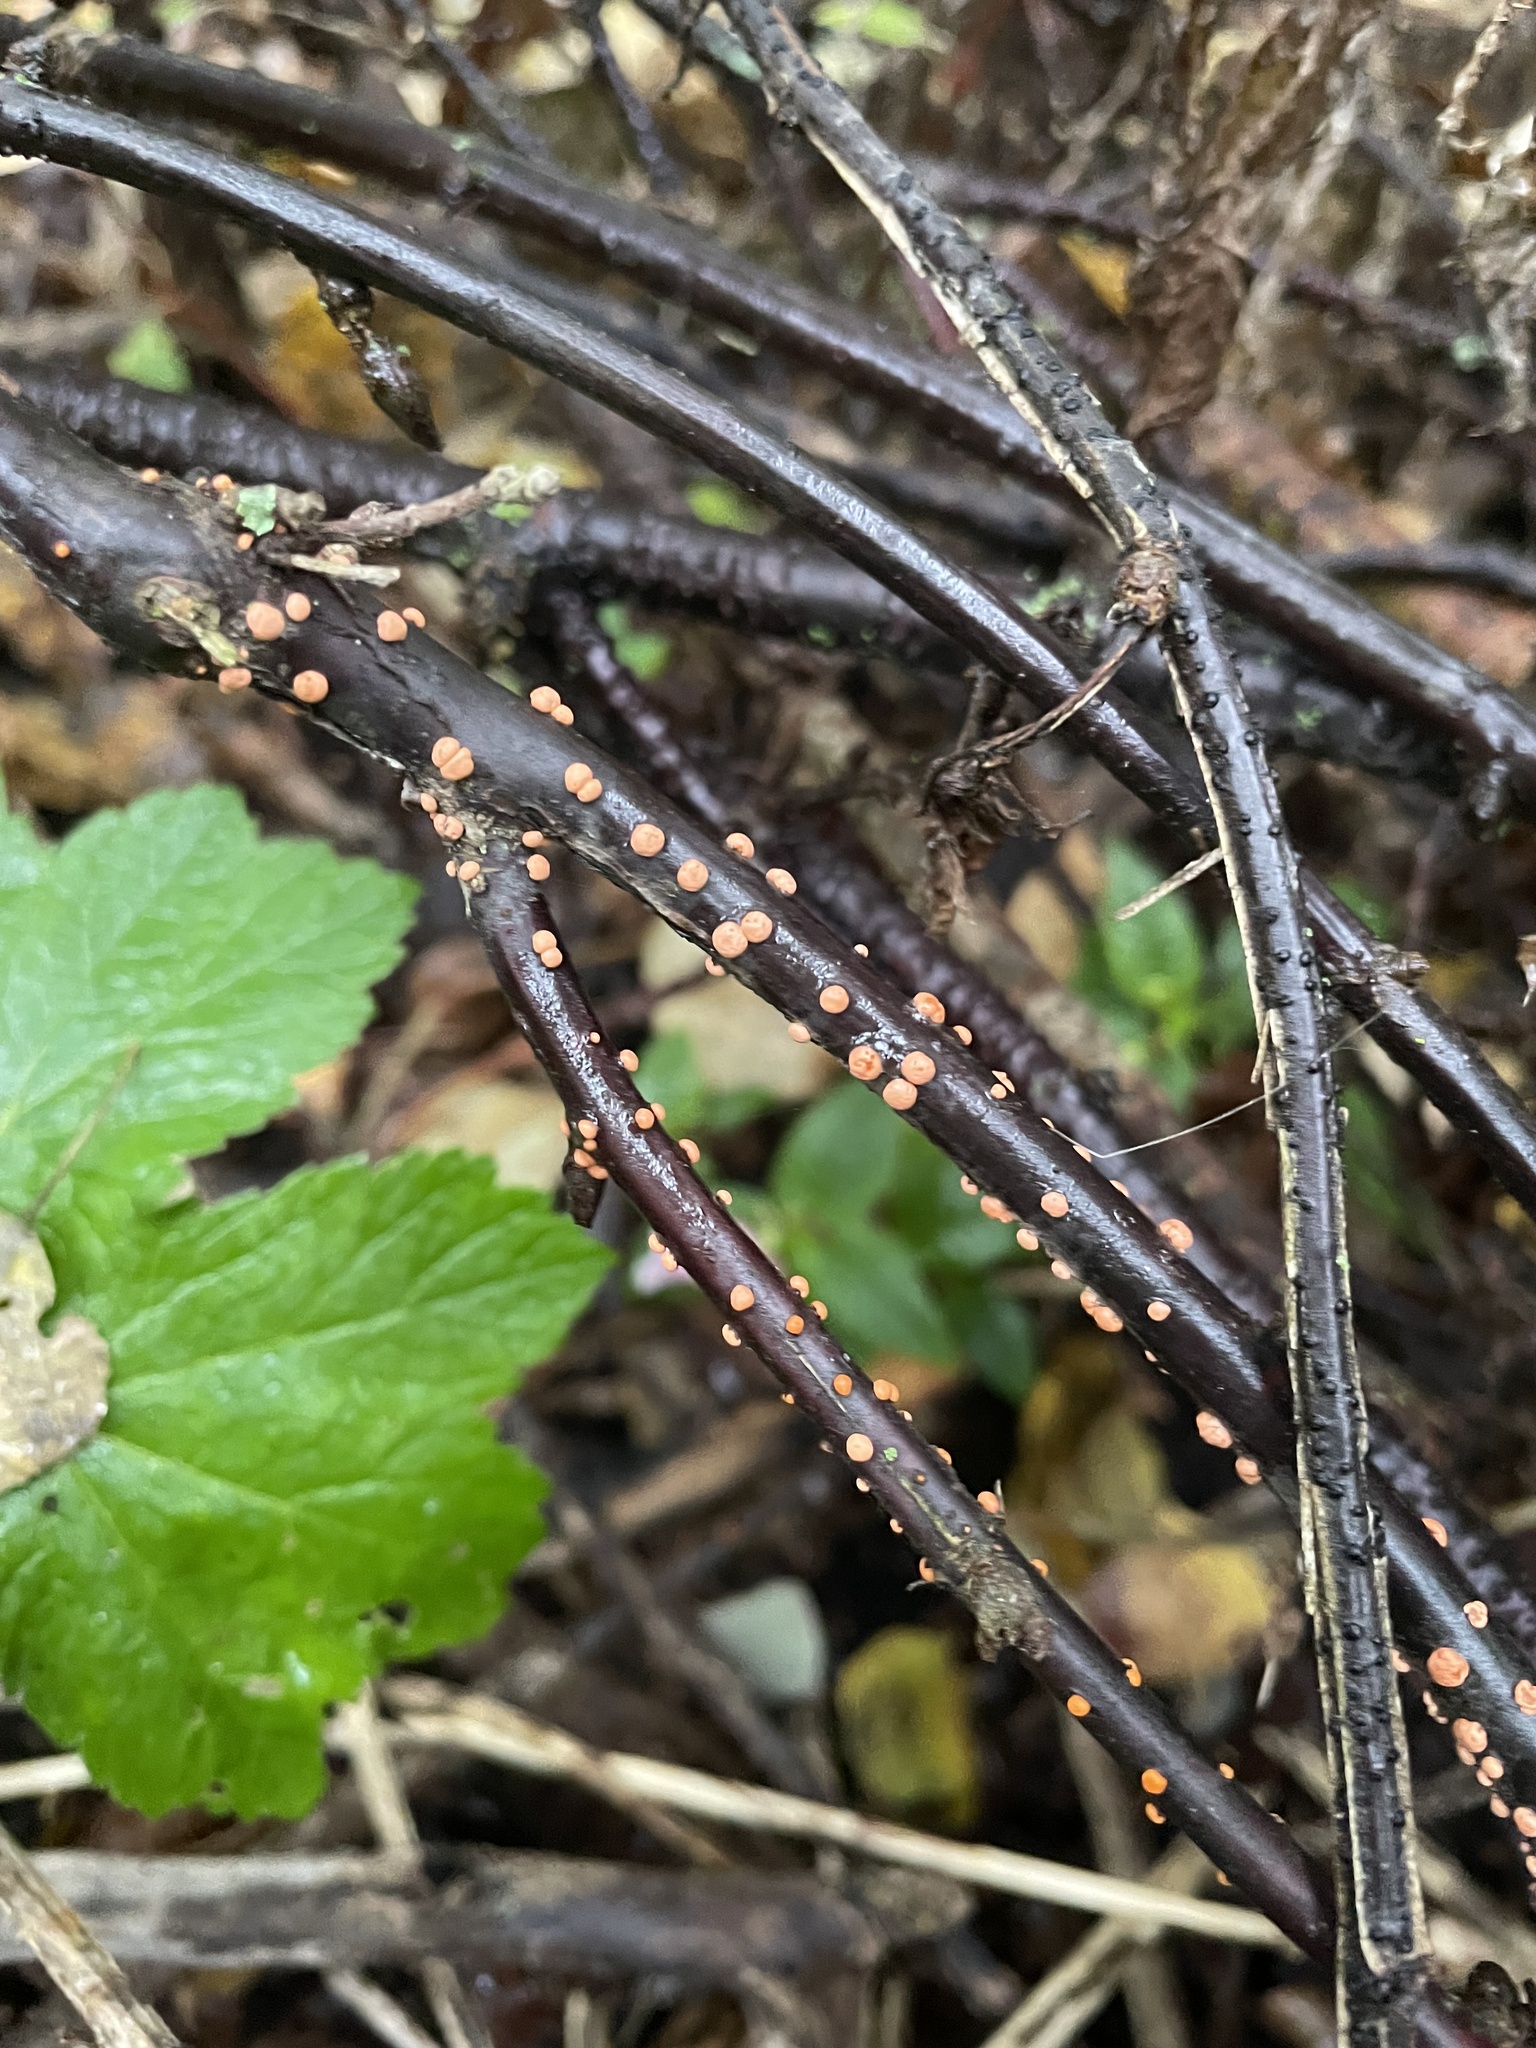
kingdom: Fungi
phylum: Ascomycota
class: Sordariomycetes
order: Hypocreales
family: Nectriaceae
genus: Nectria
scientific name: Nectria cinnabarina
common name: Coral spot
